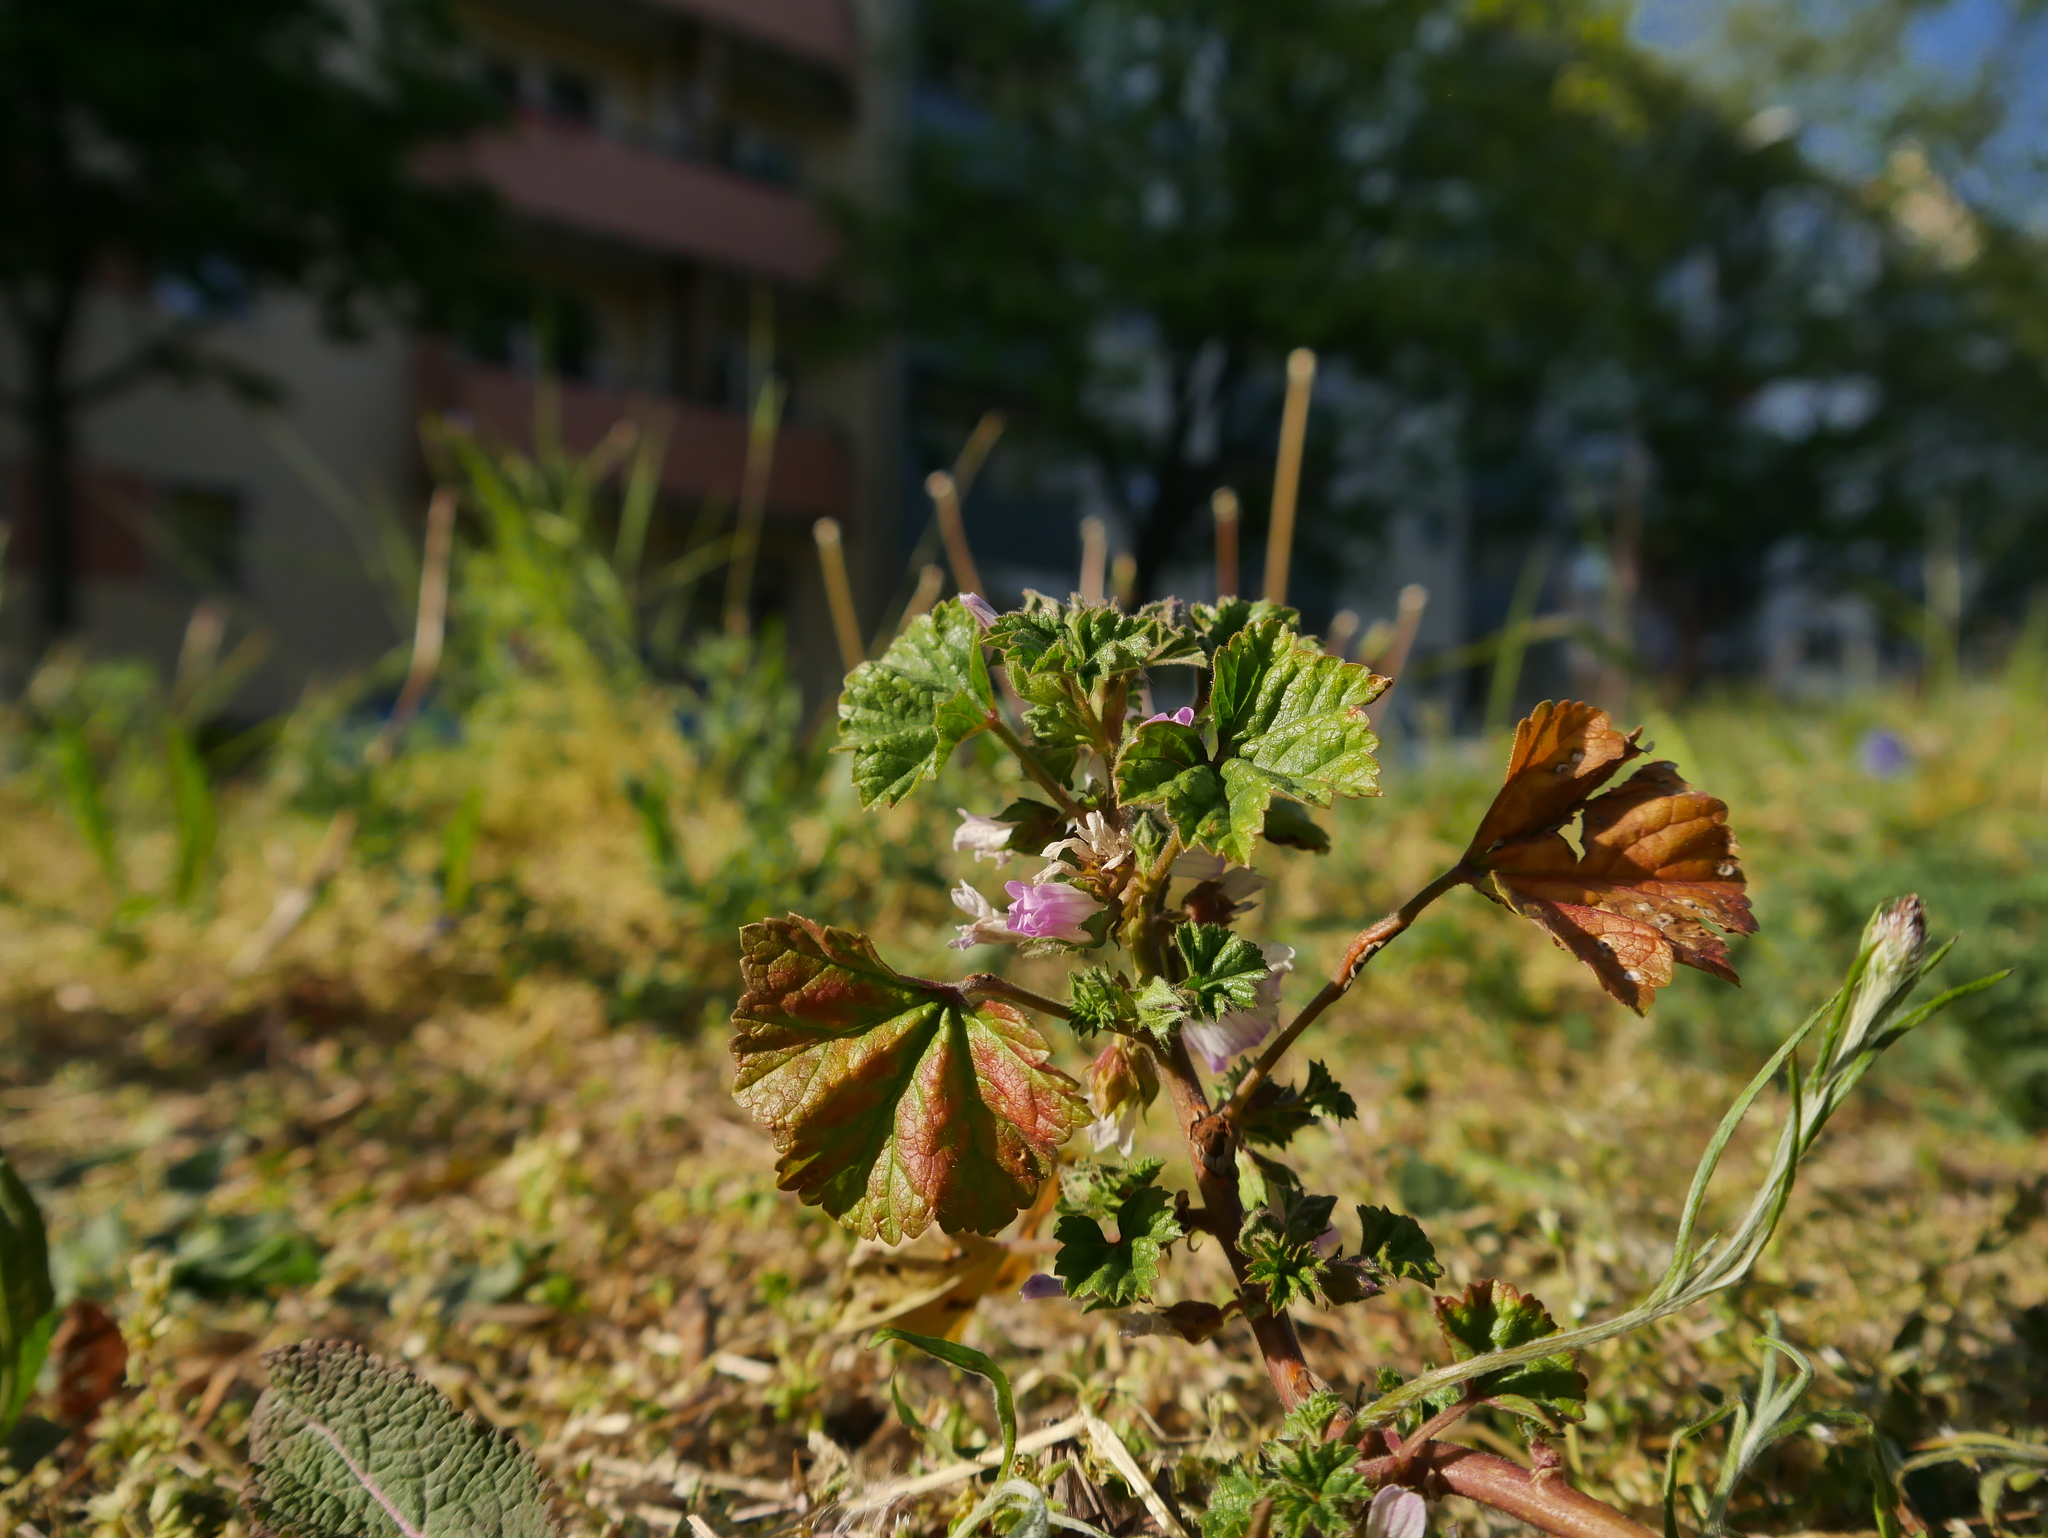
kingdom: Plantae
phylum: Tracheophyta
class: Magnoliopsida
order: Malvales
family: Malvaceae
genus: Malva
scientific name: Malva neglecta
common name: Common mallow
